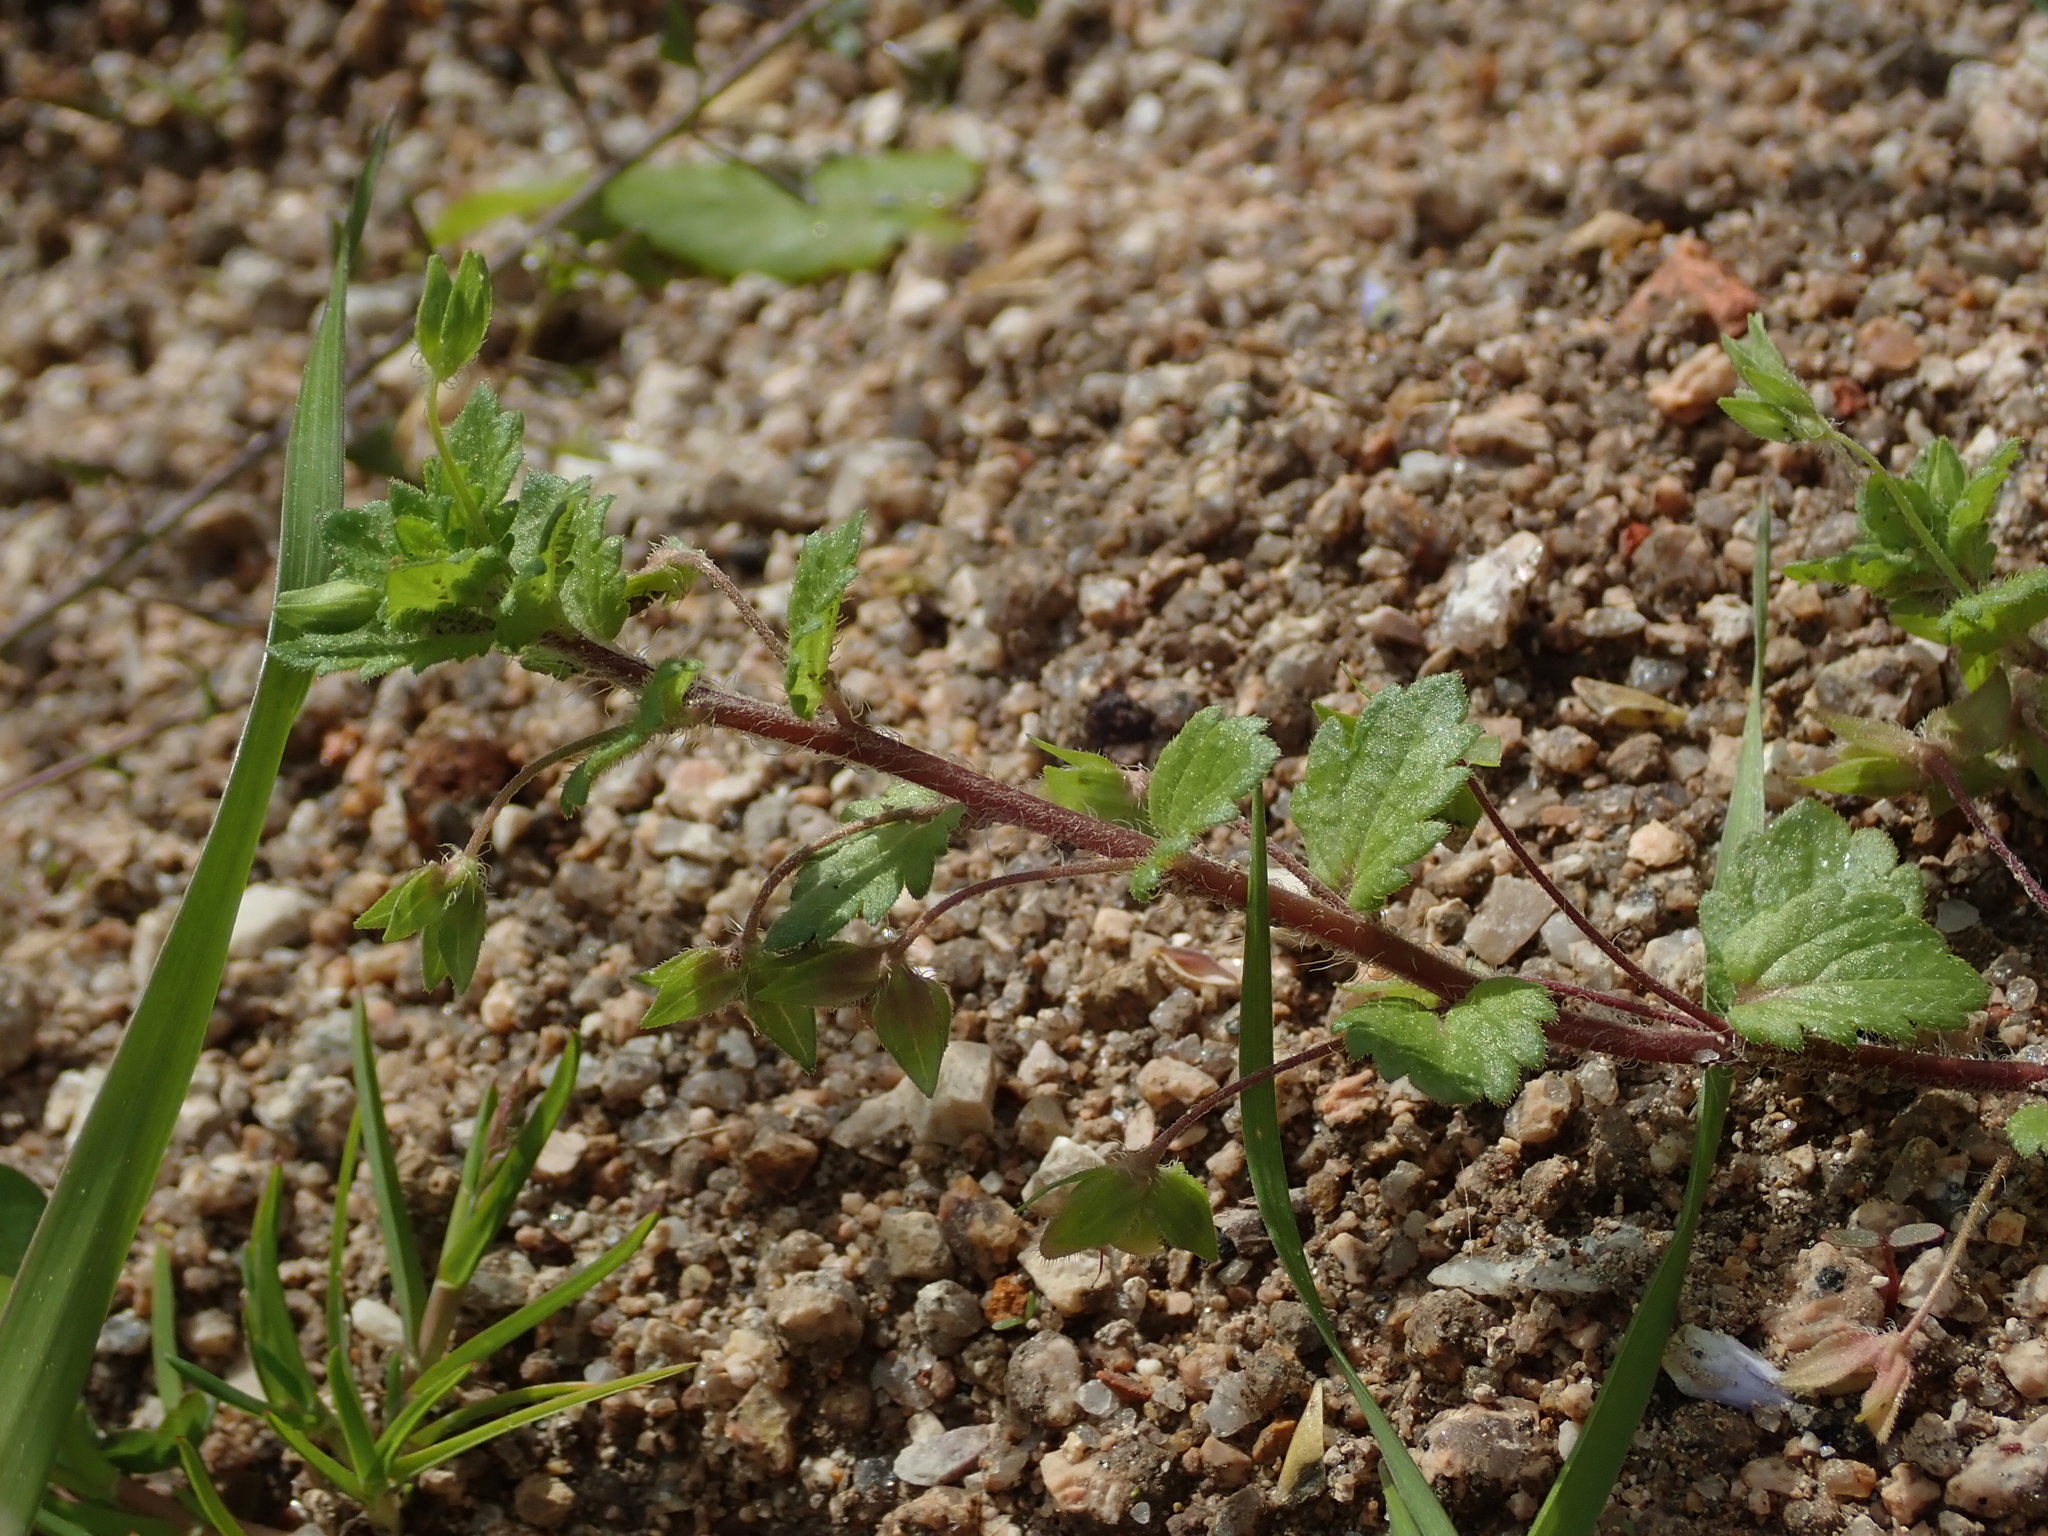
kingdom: Plantae
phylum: Tracheophyta
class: Magnoliopsida
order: Lamiales
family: Plantaginaceae
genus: Veronica
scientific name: Veronica persica
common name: Common field-speedwell
